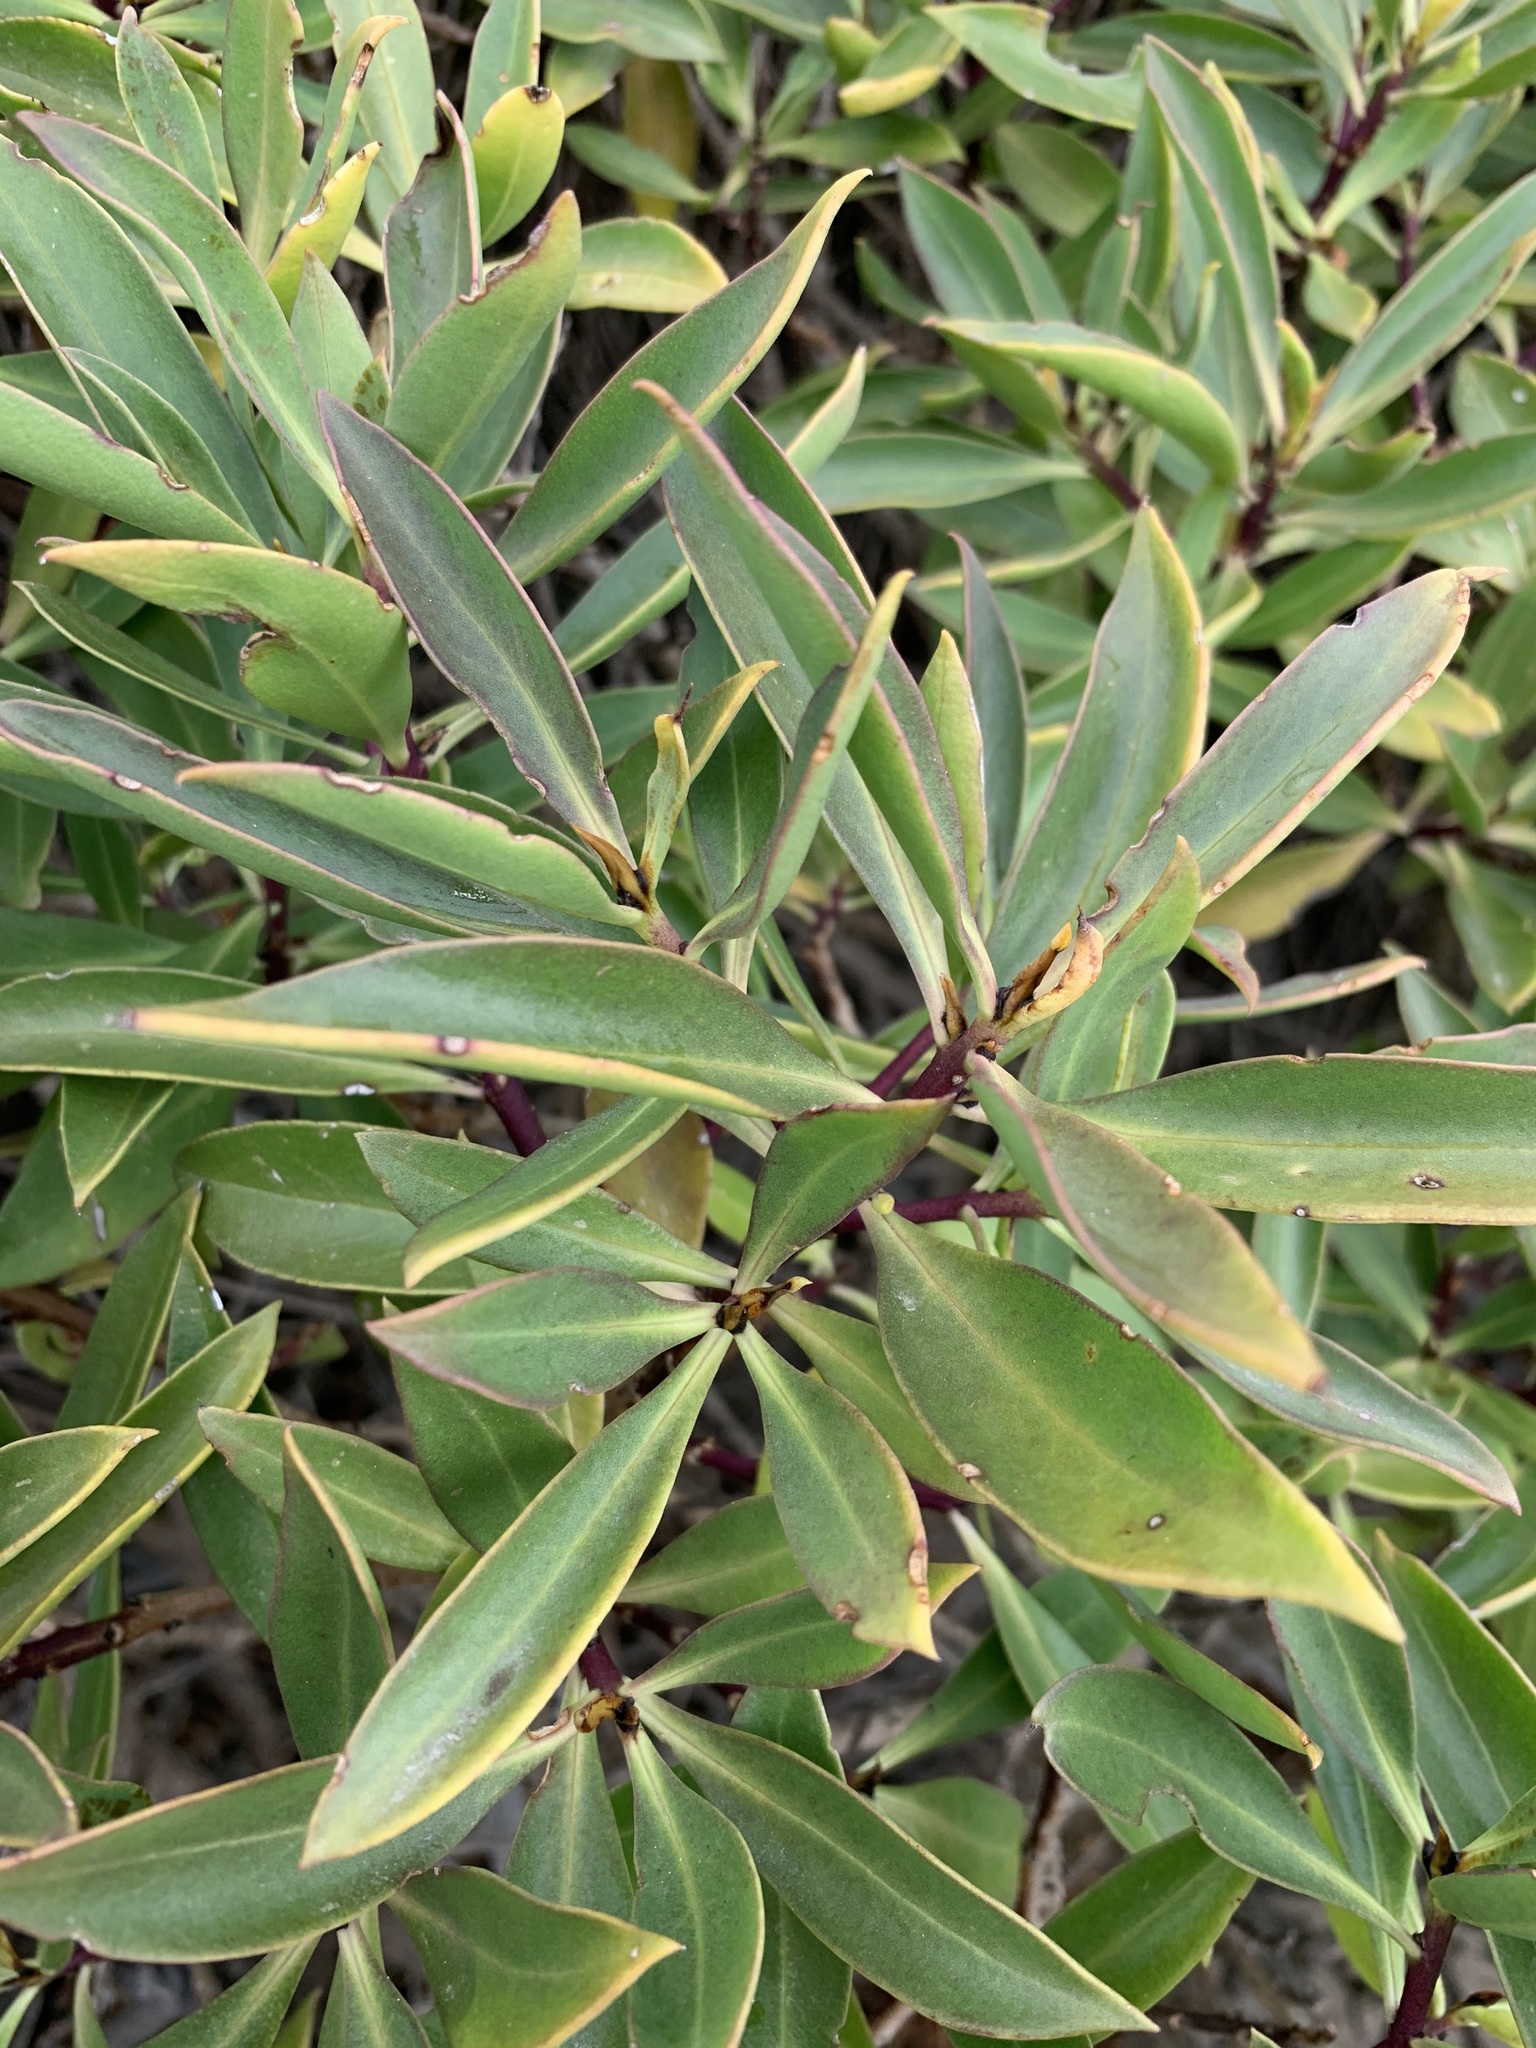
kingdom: Plantae
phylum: Tracheophyta
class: Magnoliopsida
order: Lamiales
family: Scrophulariaceae
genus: Myoporum
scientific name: Myoporum insulare
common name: Common boobialla
